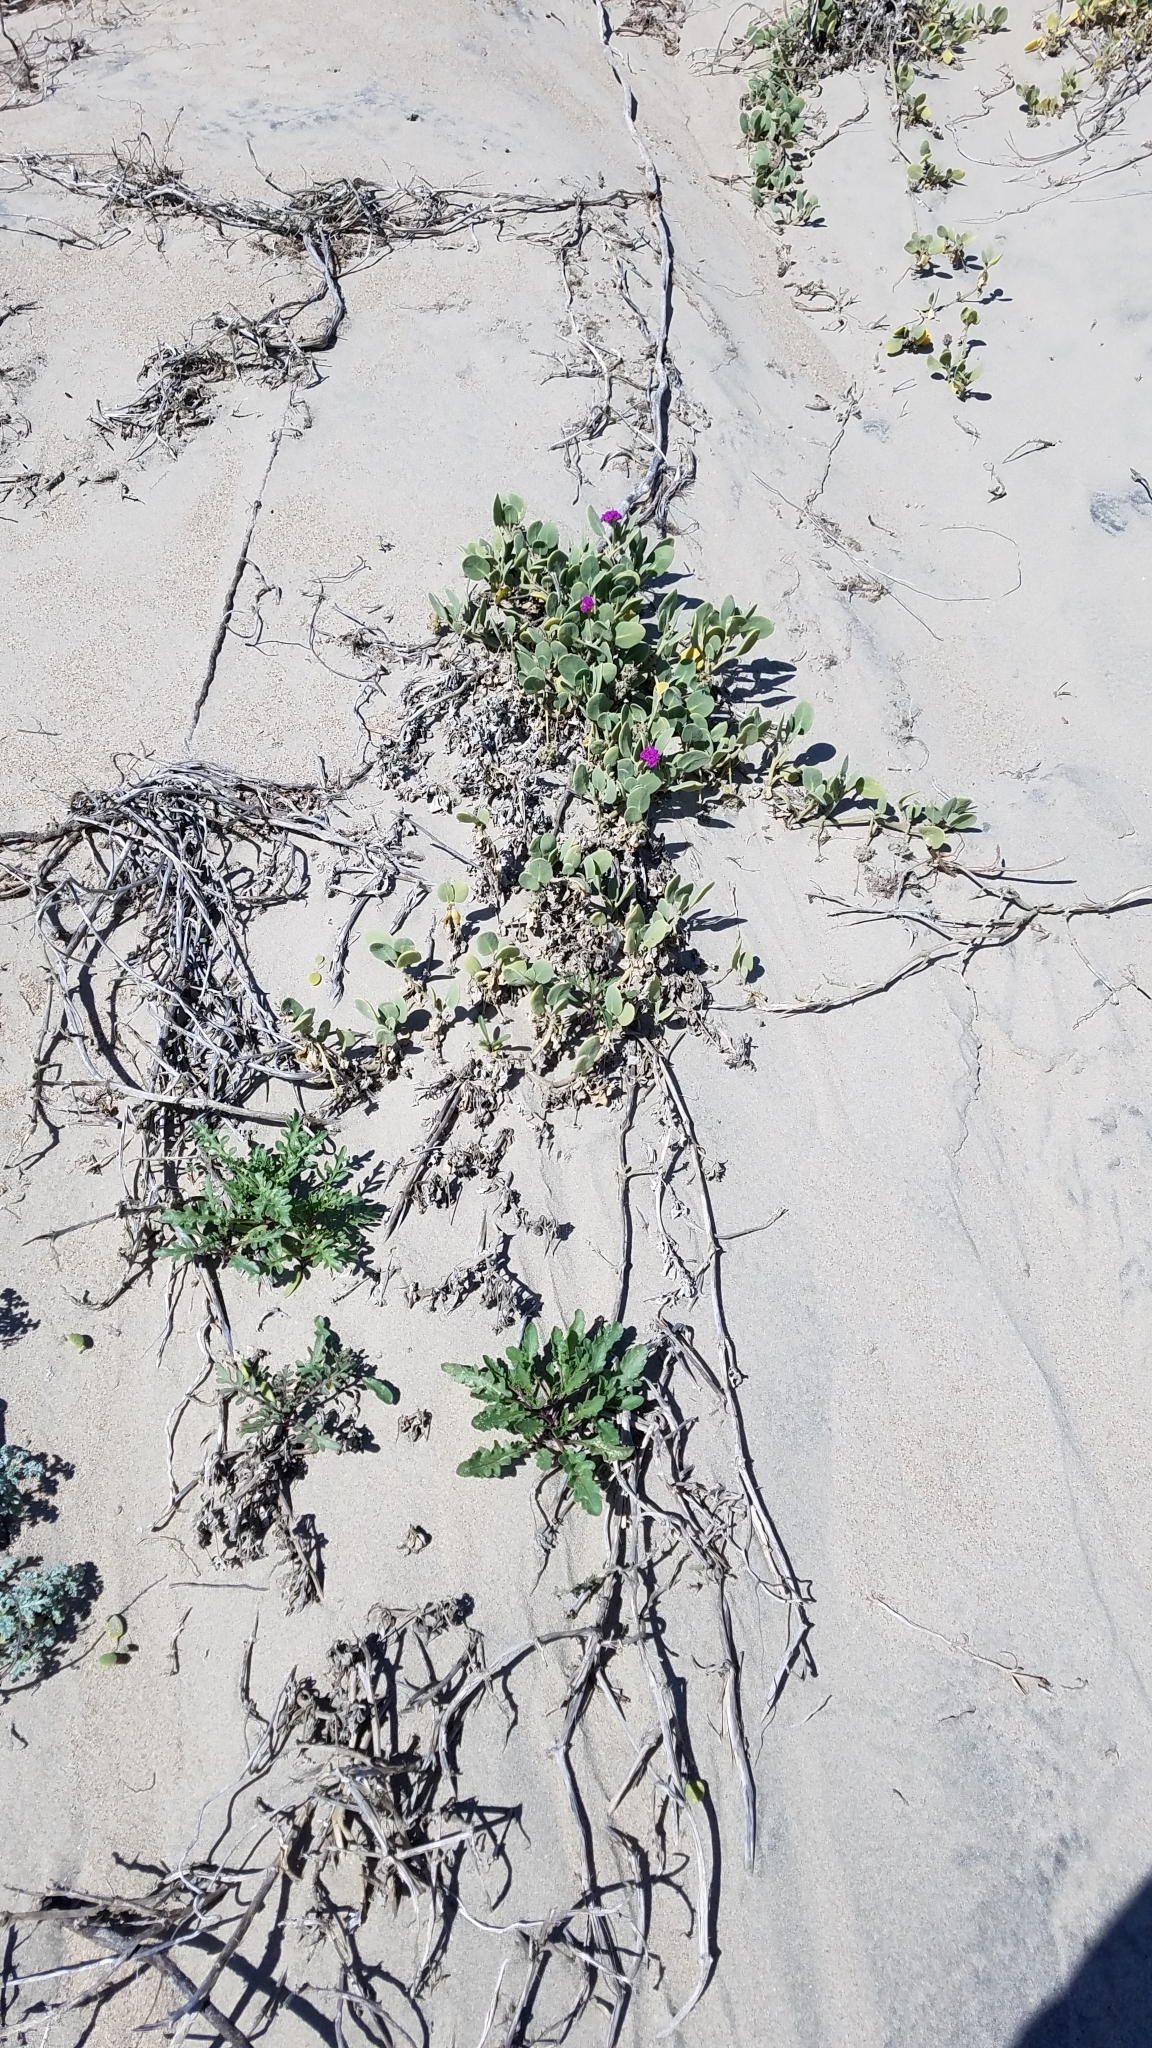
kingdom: Plantae
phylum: Tracheophyta
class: Magnoliopsida
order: Caryophyllales
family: Nyctaginaceae
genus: Abronia
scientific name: Abronia maritima
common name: Red sand-verbena
